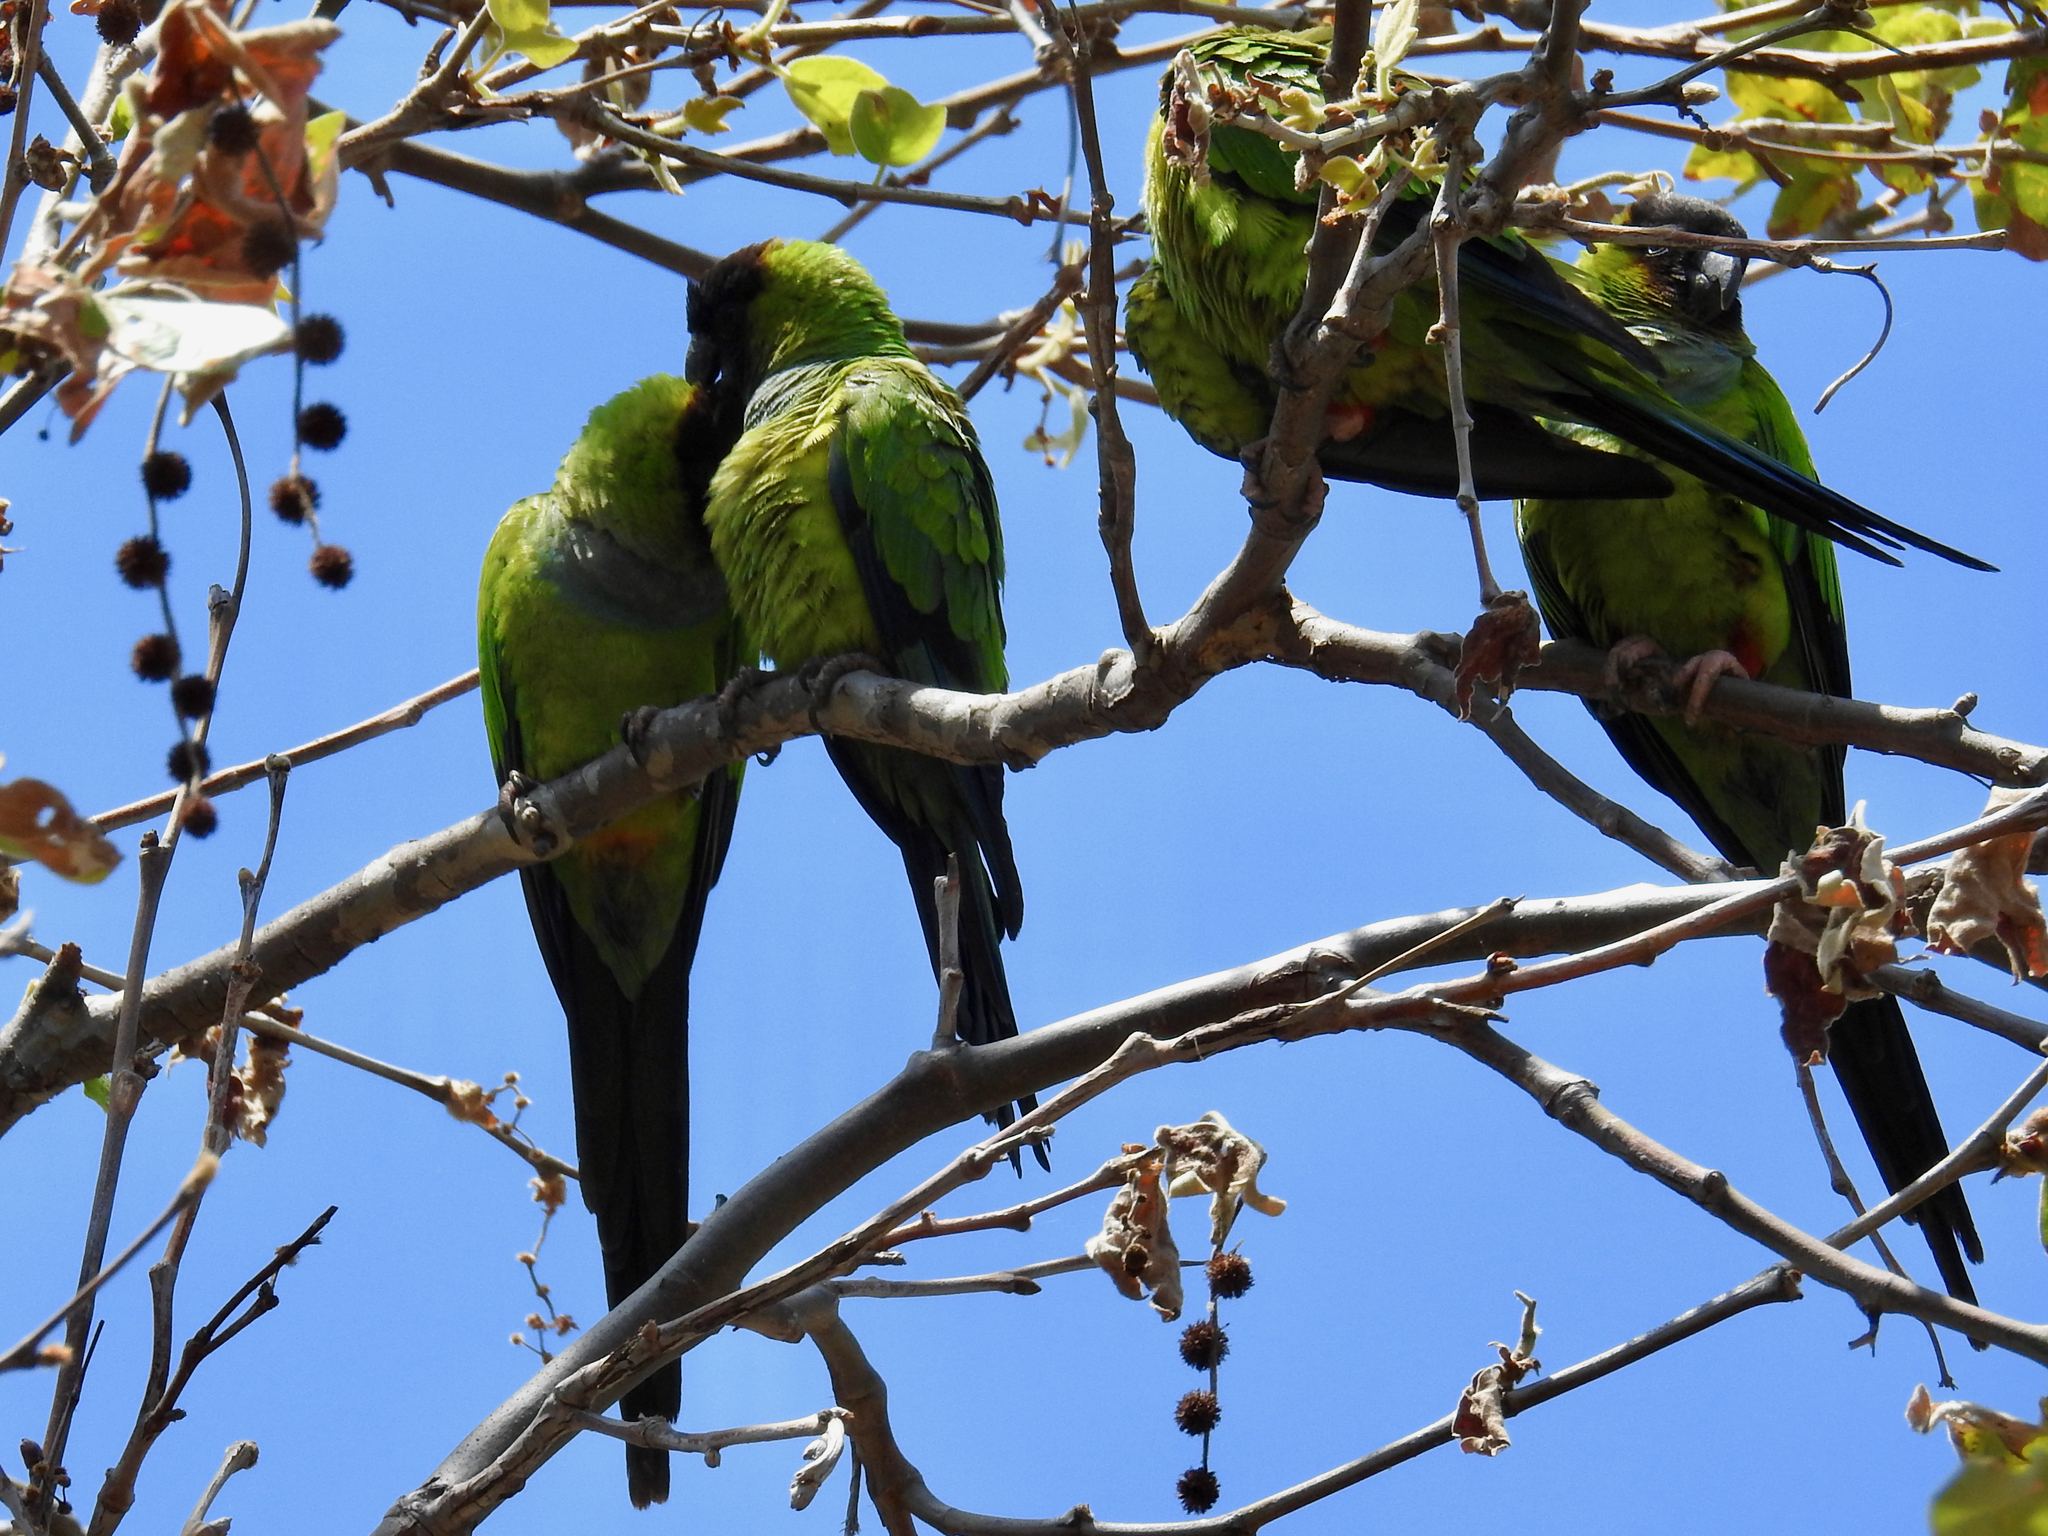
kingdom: Animalia
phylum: Chordata
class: Aves
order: Psittaciformes
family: Psittacidae
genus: Nandayus
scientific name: Nandayus nenday
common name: Nanday parakeet
